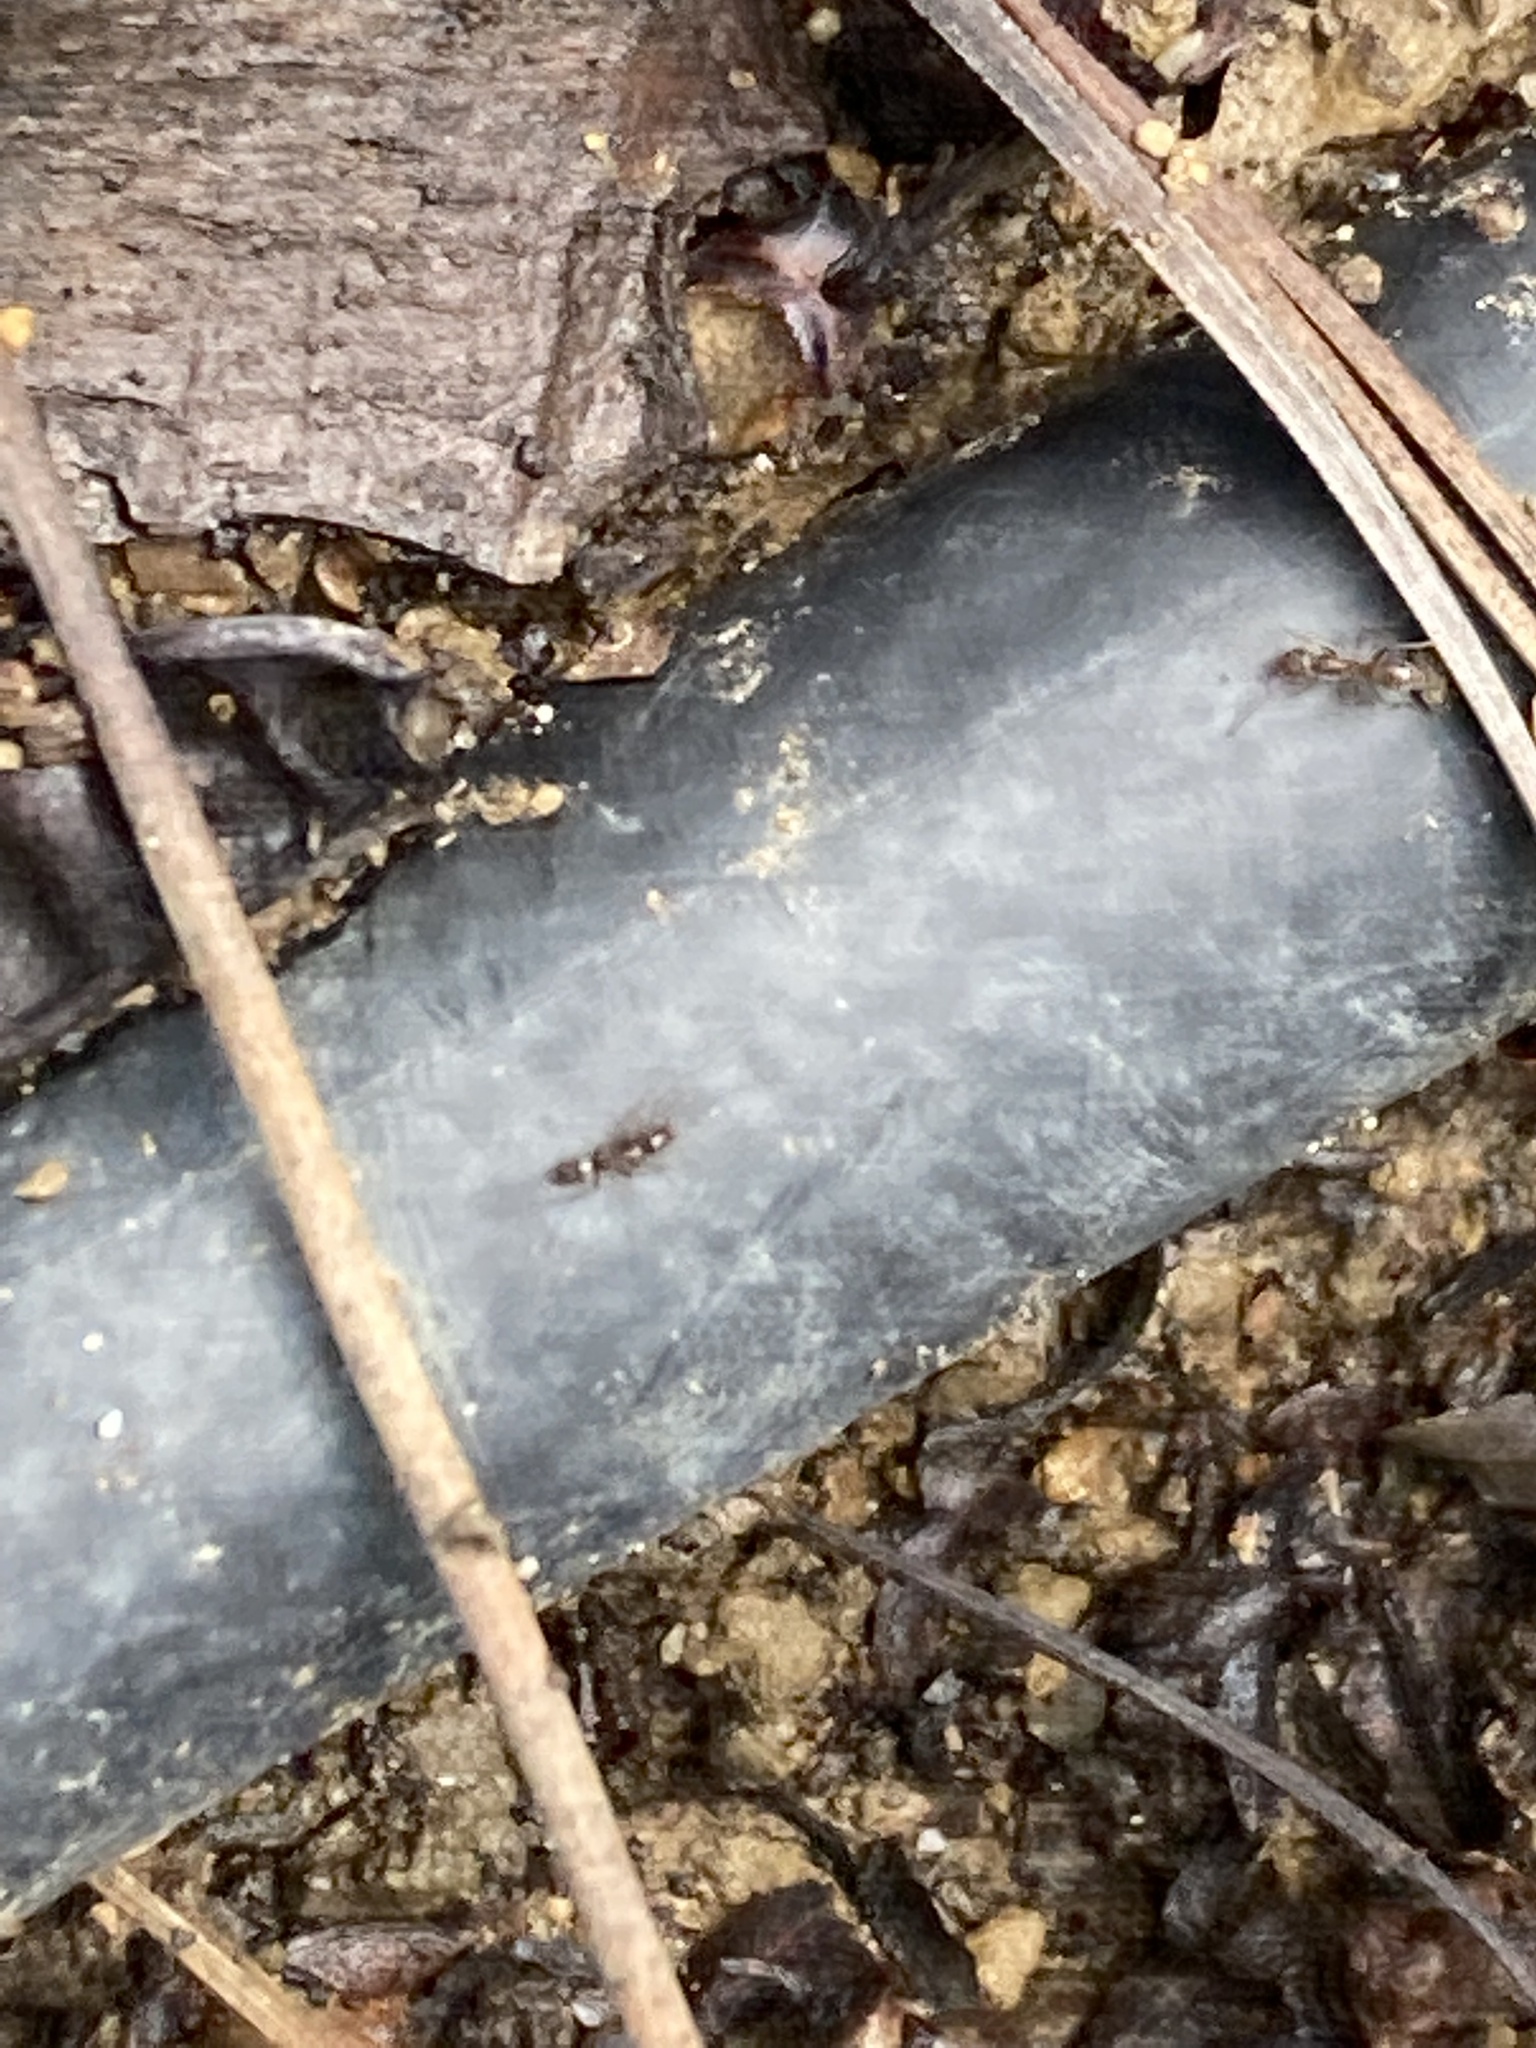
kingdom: Animalia
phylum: Arthropoda
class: Insecta
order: Hymenoptera
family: Formicidae
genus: Linepithema
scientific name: Linepithema humile
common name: Argentine ant
